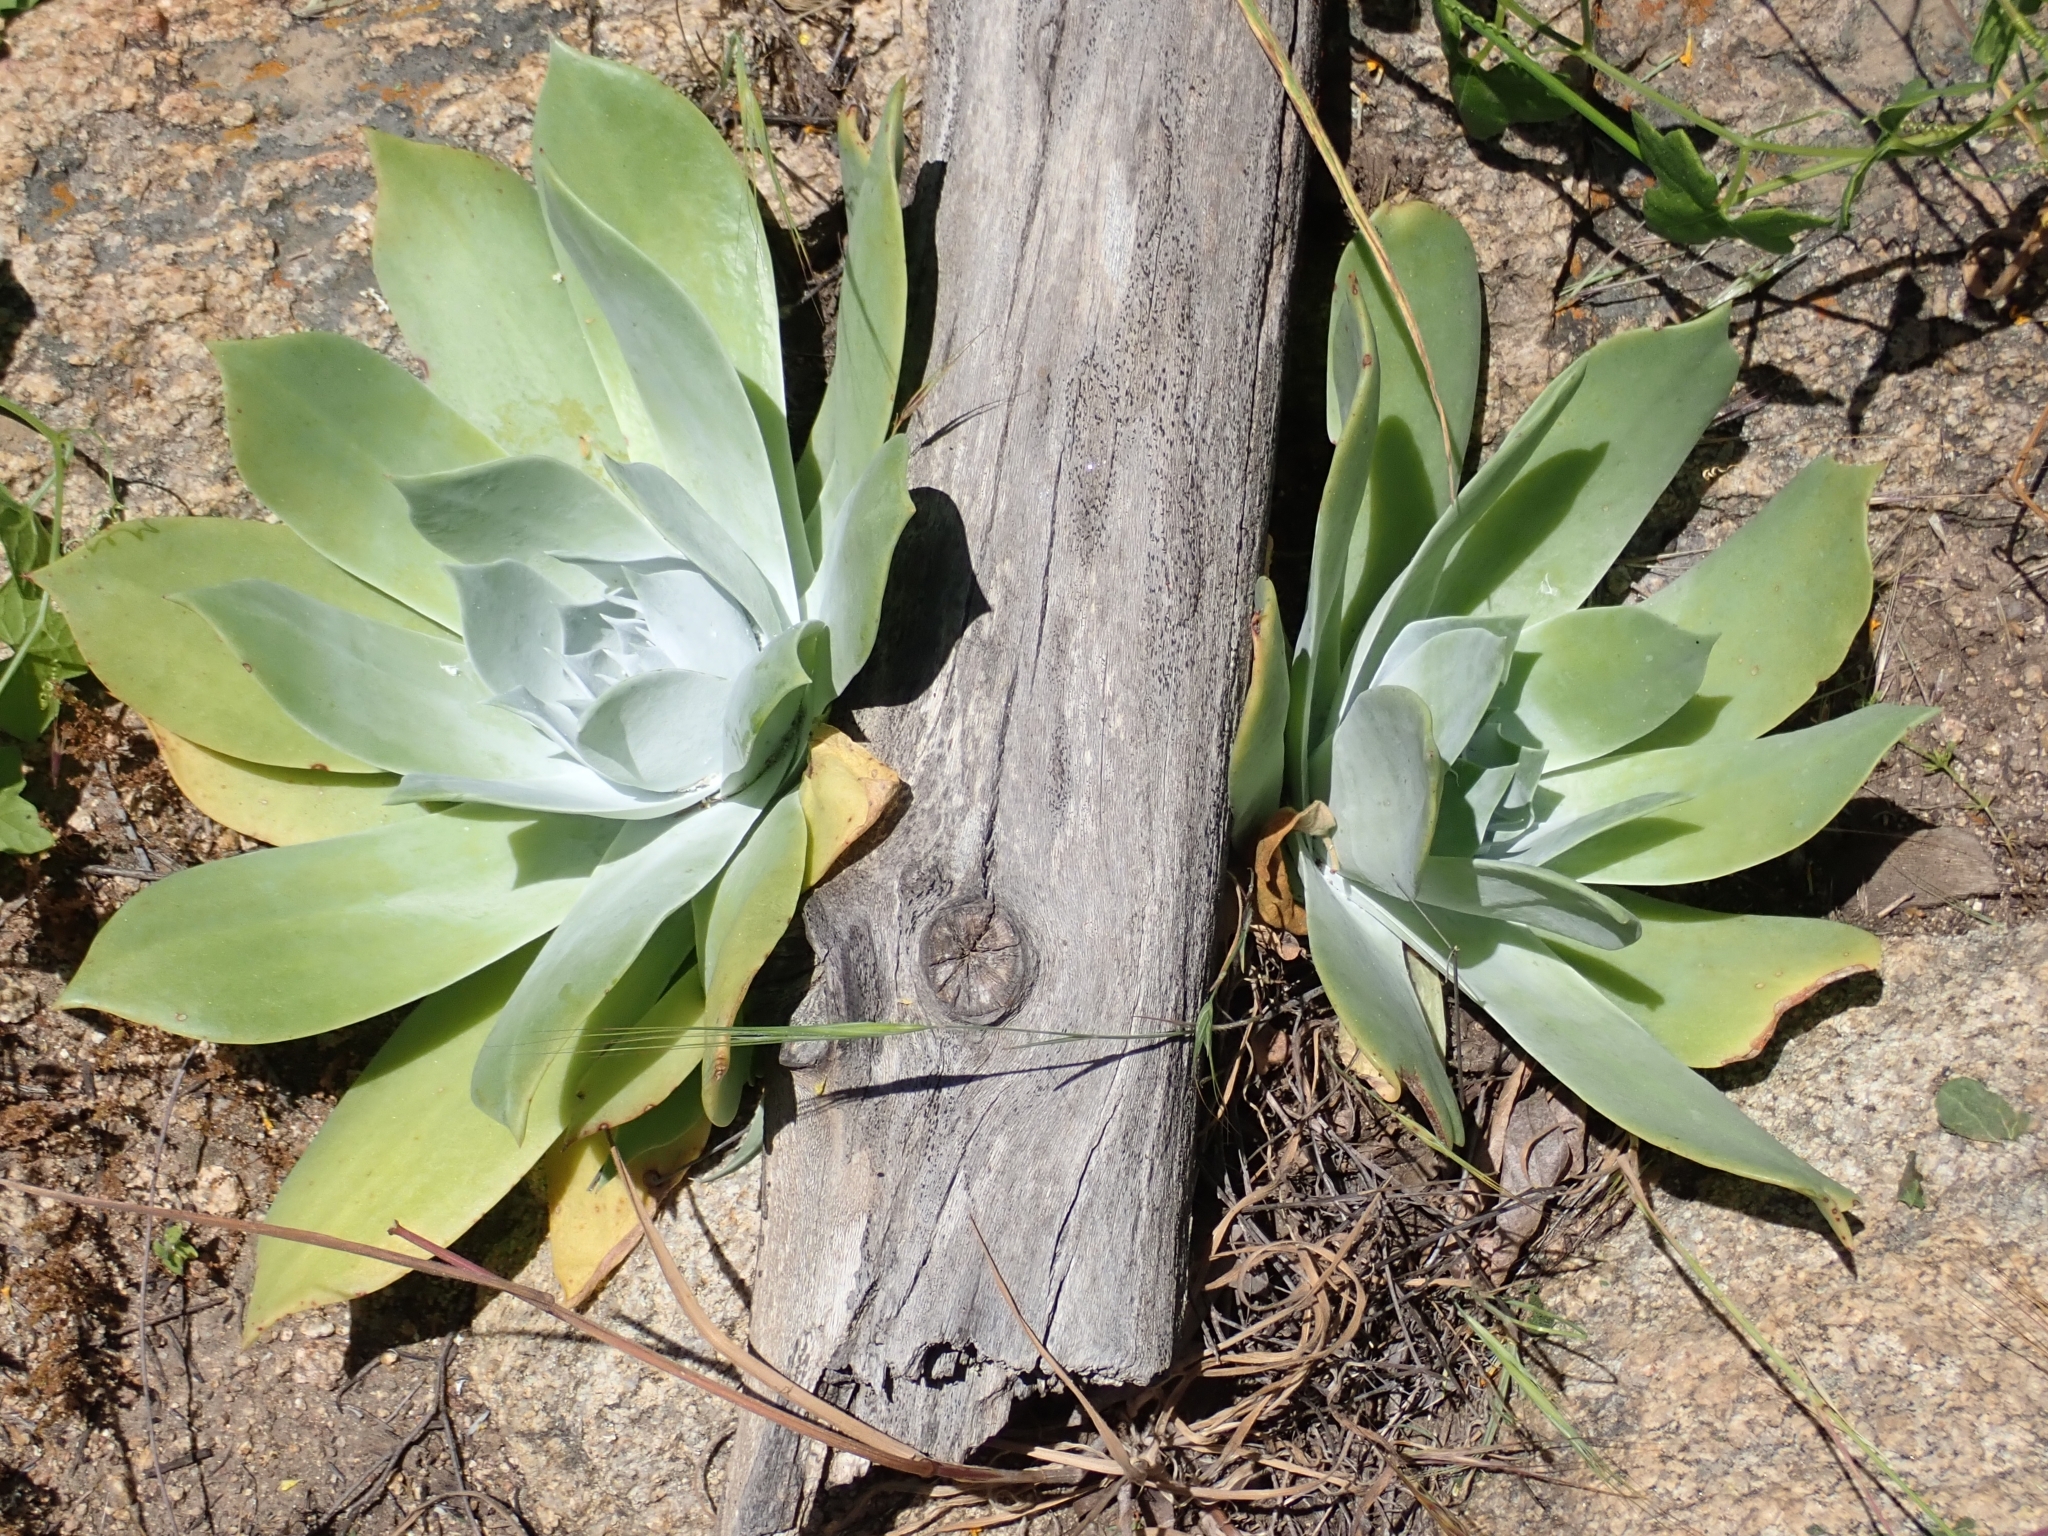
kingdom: Plantae
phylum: Tracheophyta
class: Magnoliopsida
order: Saxifragales
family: Crassulaceae
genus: Dudleya
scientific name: Dudleya pulverulenta
